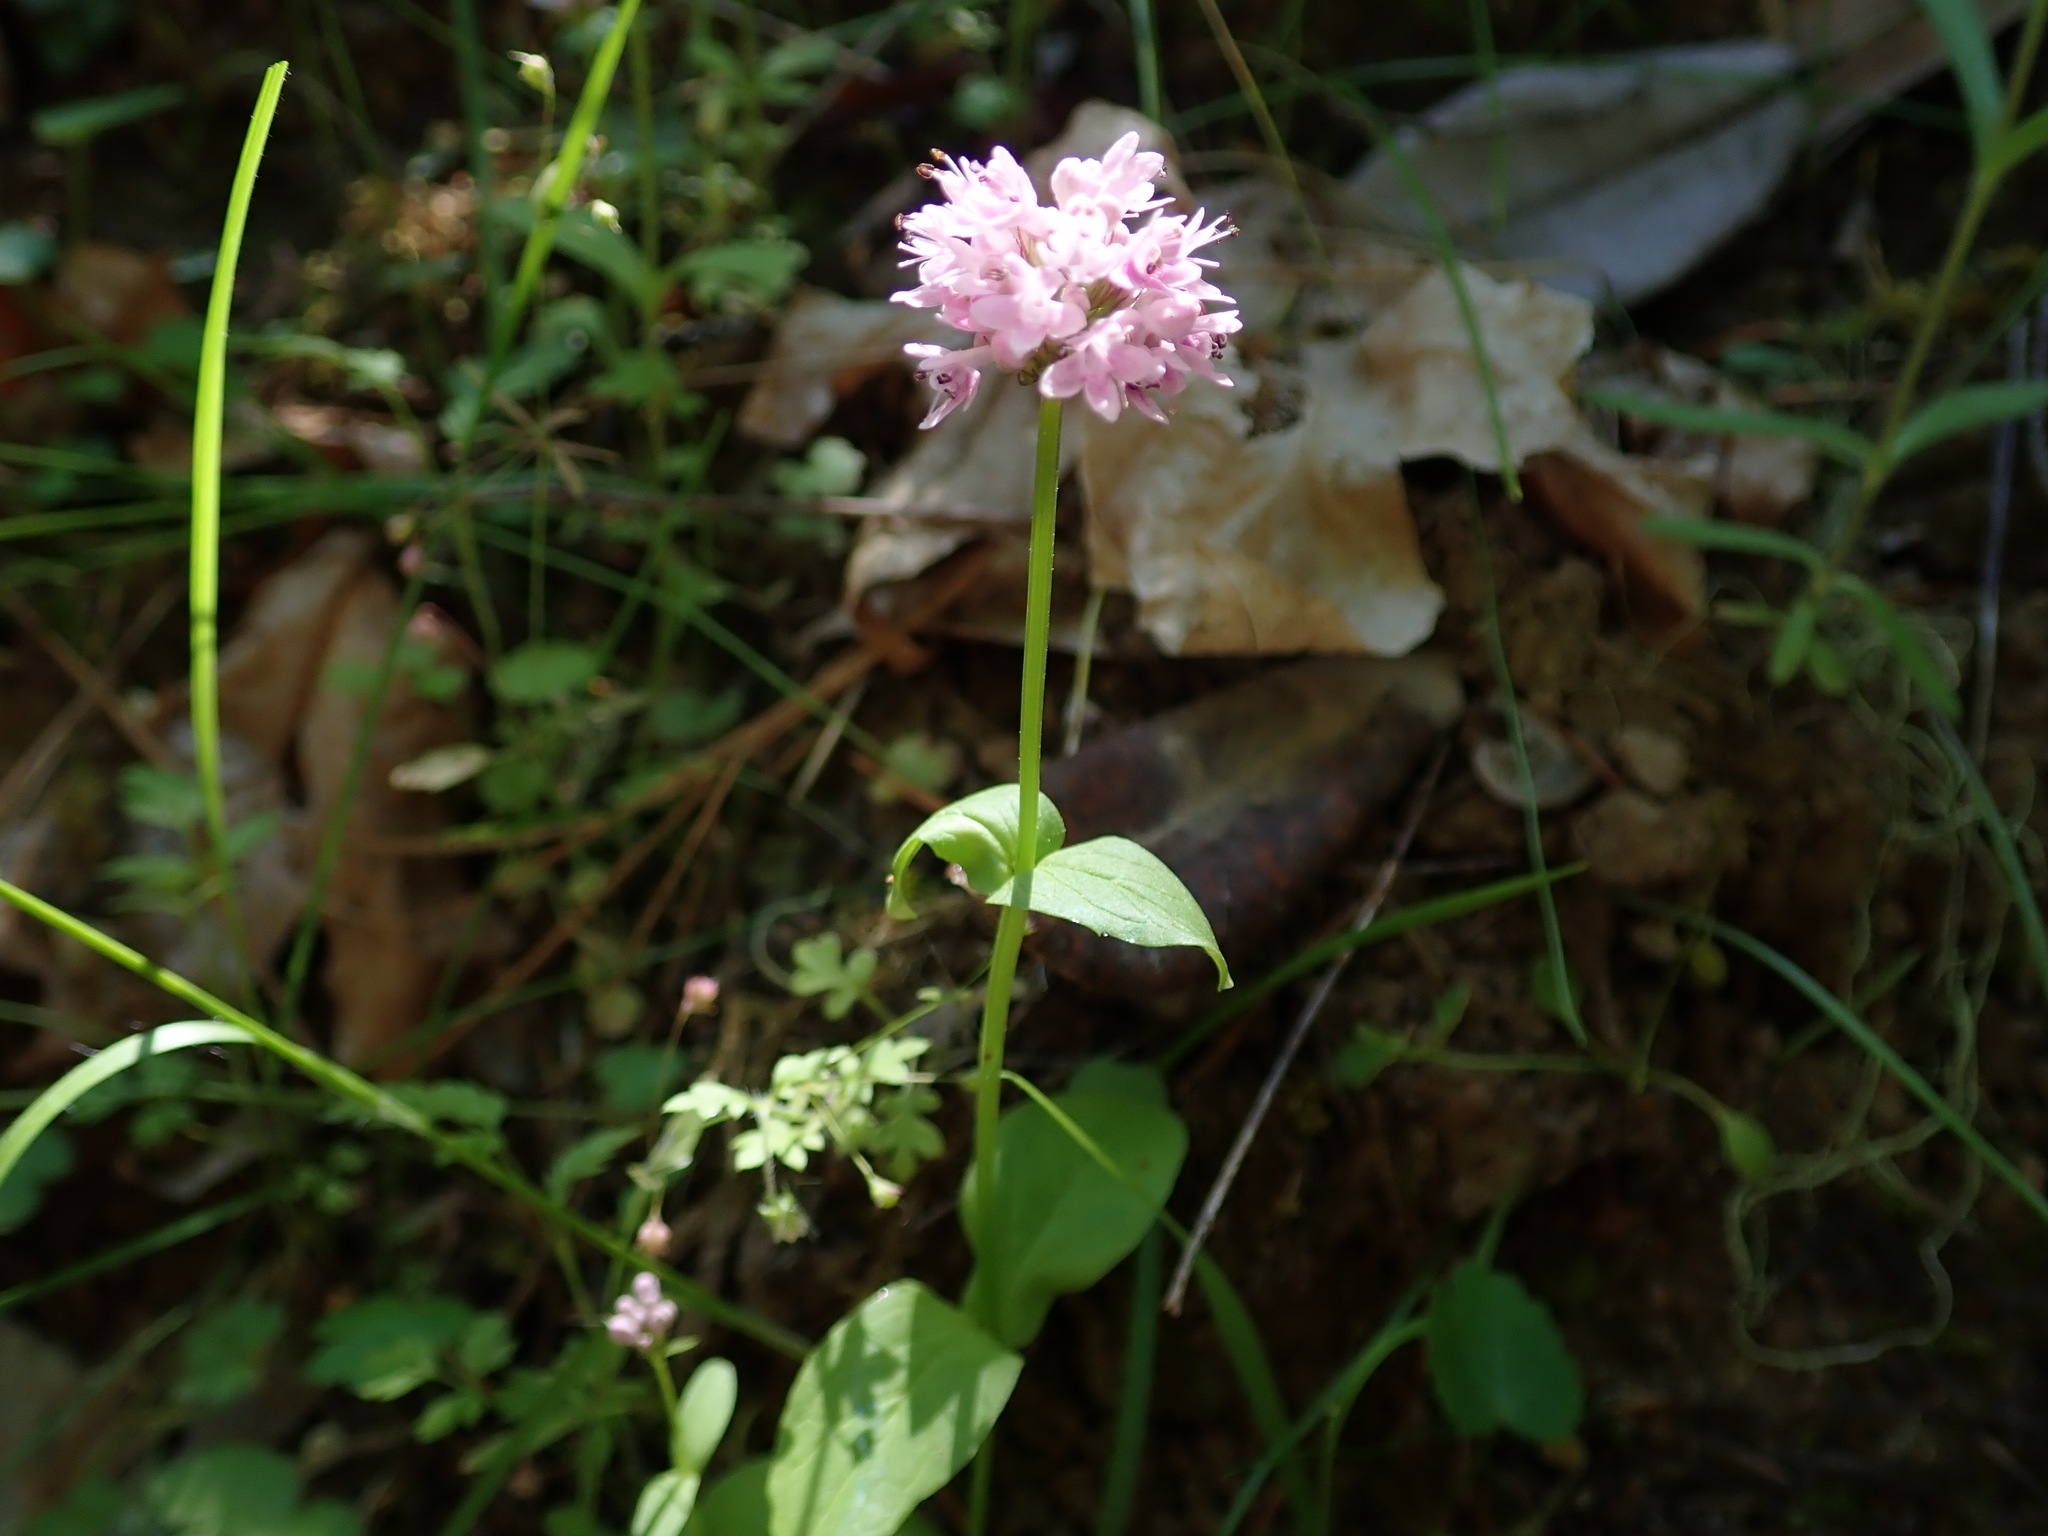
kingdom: Plantae
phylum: Tracheophyta
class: Magnoliopsida
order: Dipsacales
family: Caprifoliaceae
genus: Plectritis
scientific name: Plectritis congesta
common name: Pink plectritis
